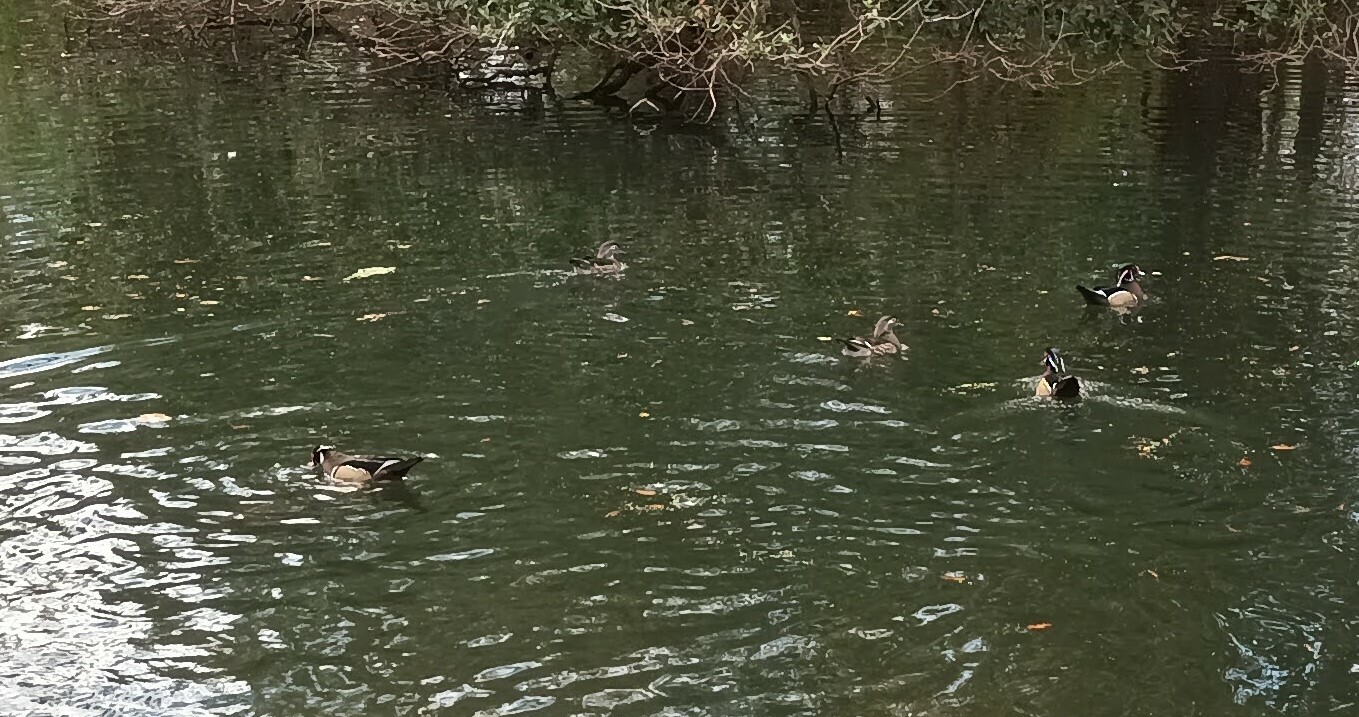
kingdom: Animalia
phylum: Chordata
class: Aves
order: Anseriformes
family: Anatidae
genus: Aix
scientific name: Aix sponsa
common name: Wood duck
